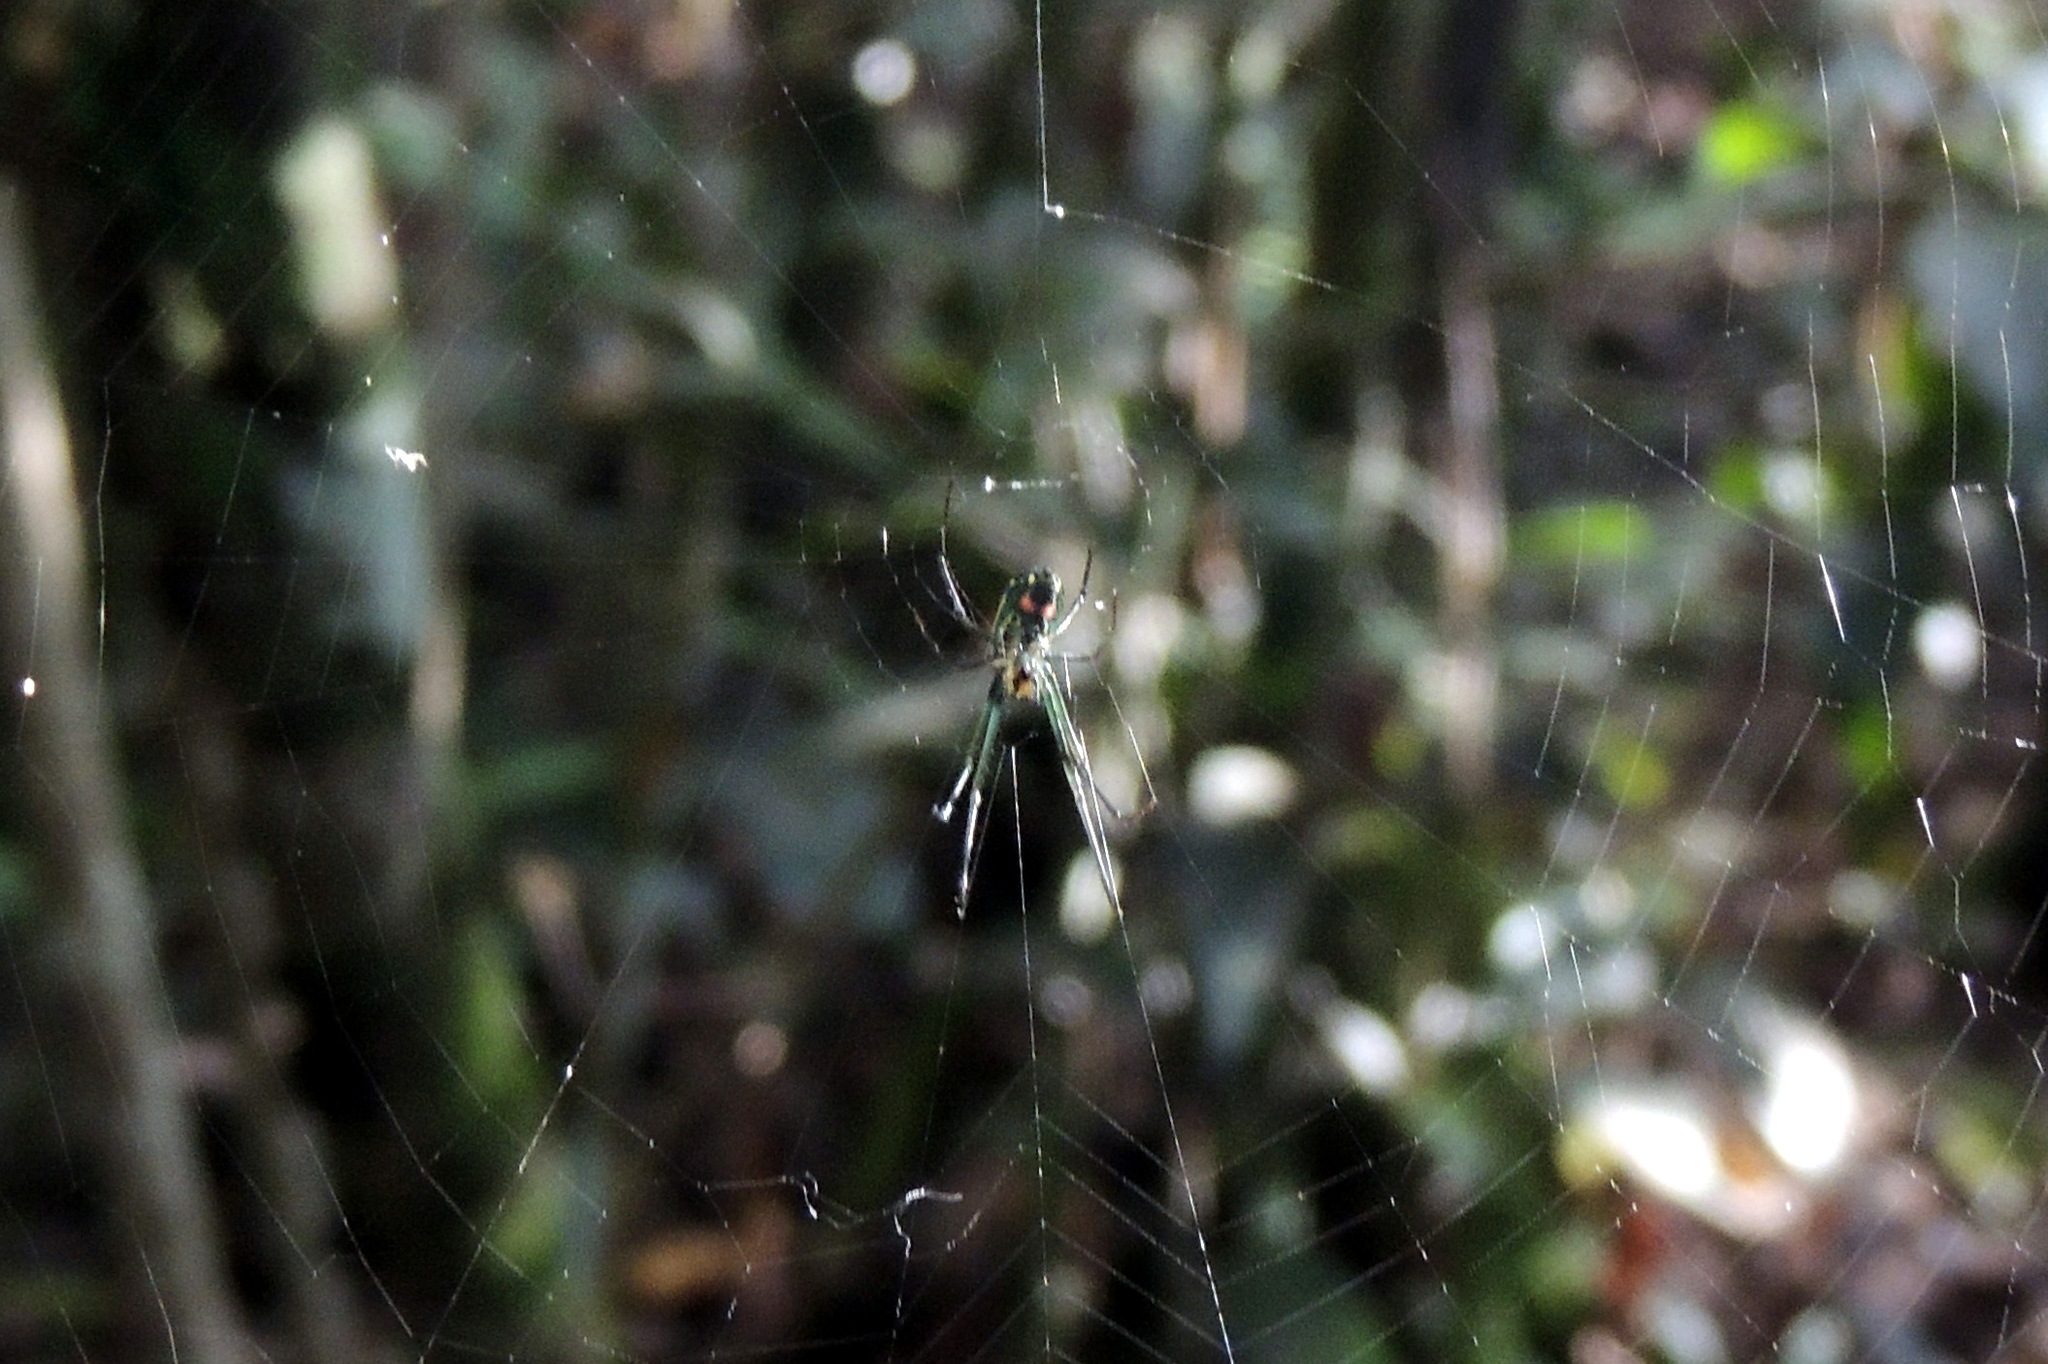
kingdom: Animalia
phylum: Arthropoda
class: Arachnida
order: Araneae
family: Tetragnathidae
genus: Leucauge
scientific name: Leucauge argyrobapta
